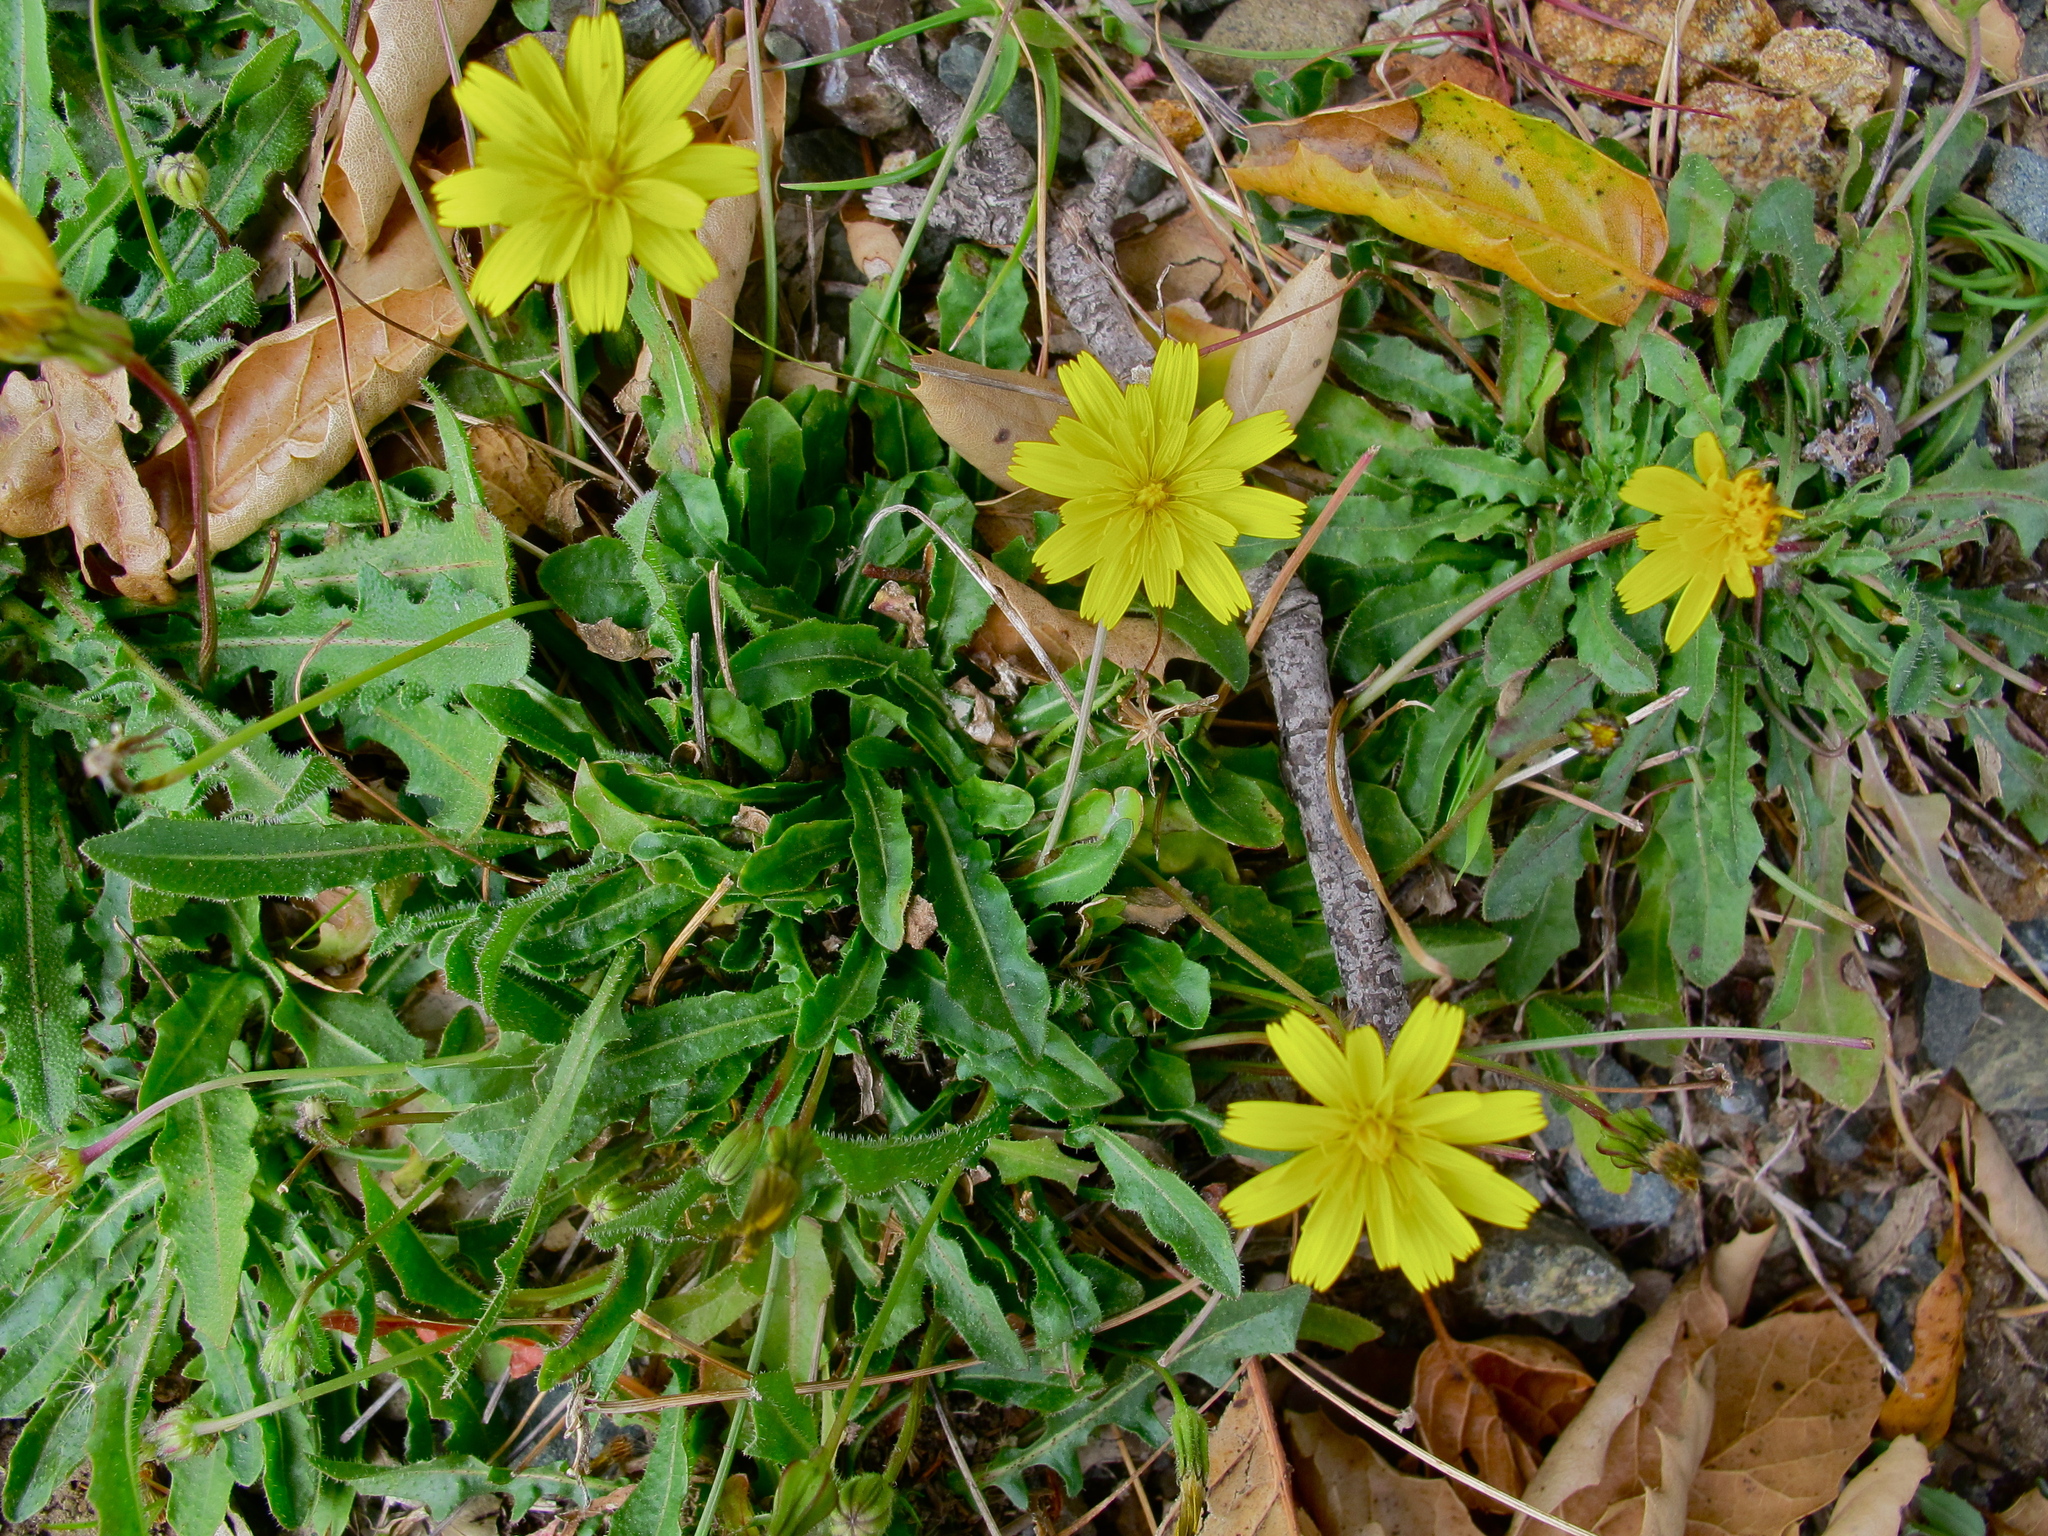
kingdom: Plantae
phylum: Tracheophyta
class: Magnoliopsida
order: Asterales
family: Asteraceae
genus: Hypochaeris
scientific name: Hypochaeris radicata
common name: Flatweed
